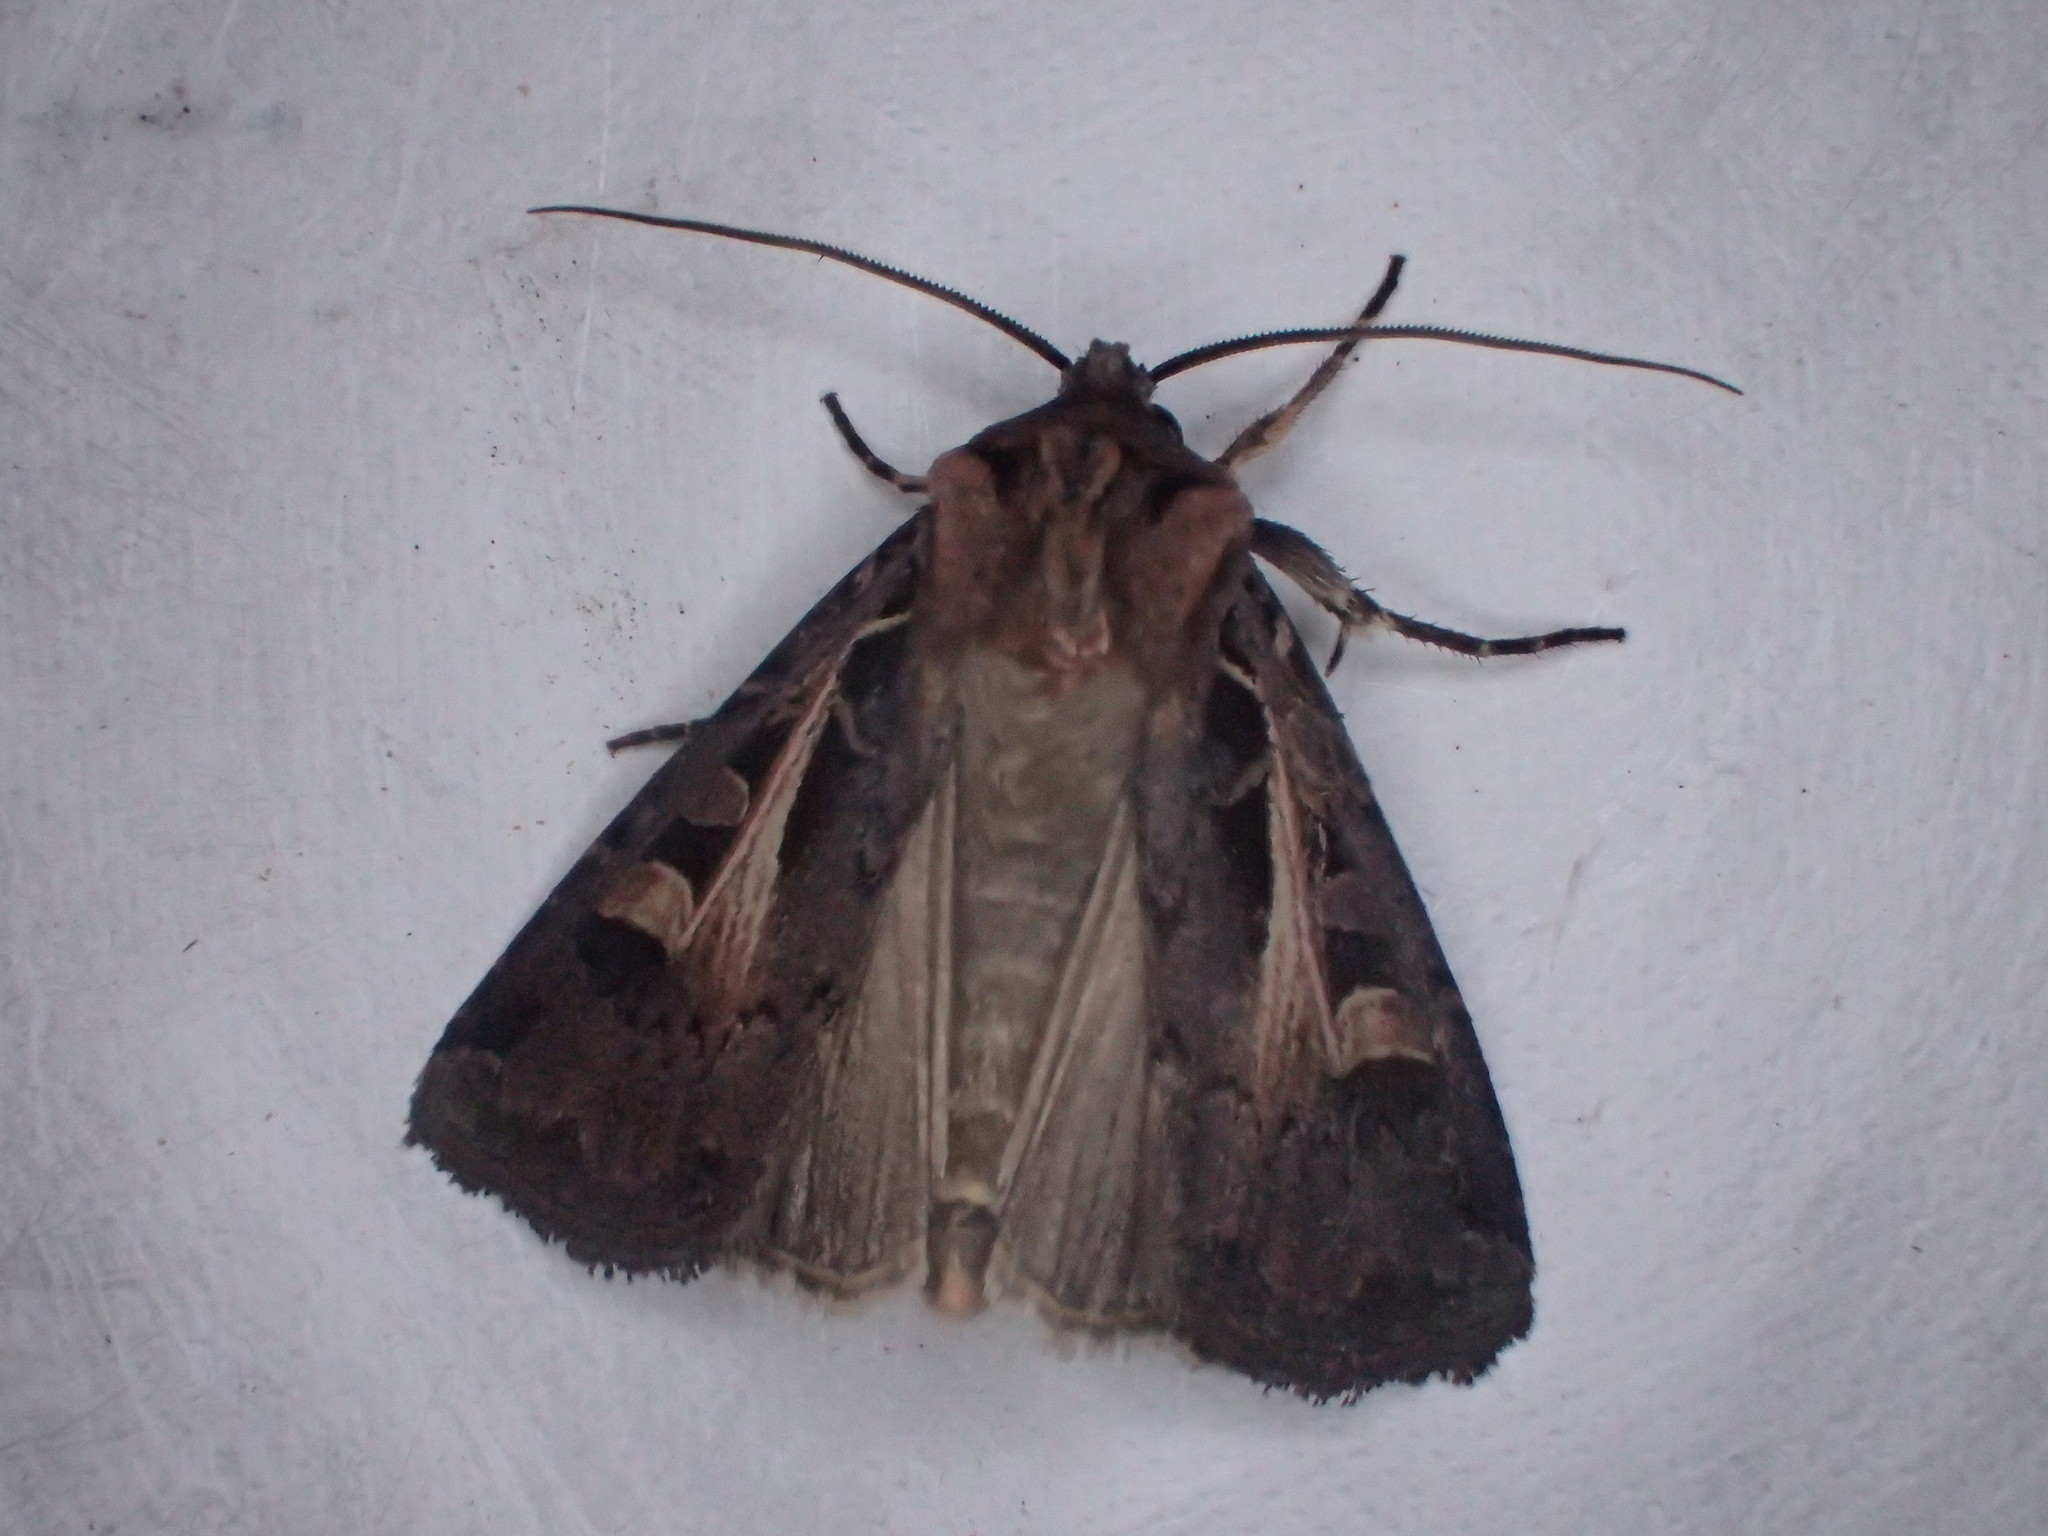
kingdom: Animalia
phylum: Arthropoda
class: Insecta
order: Lepidoptera
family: Noctuidae
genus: Feltia
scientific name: Feltia herilis
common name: Master's dart
